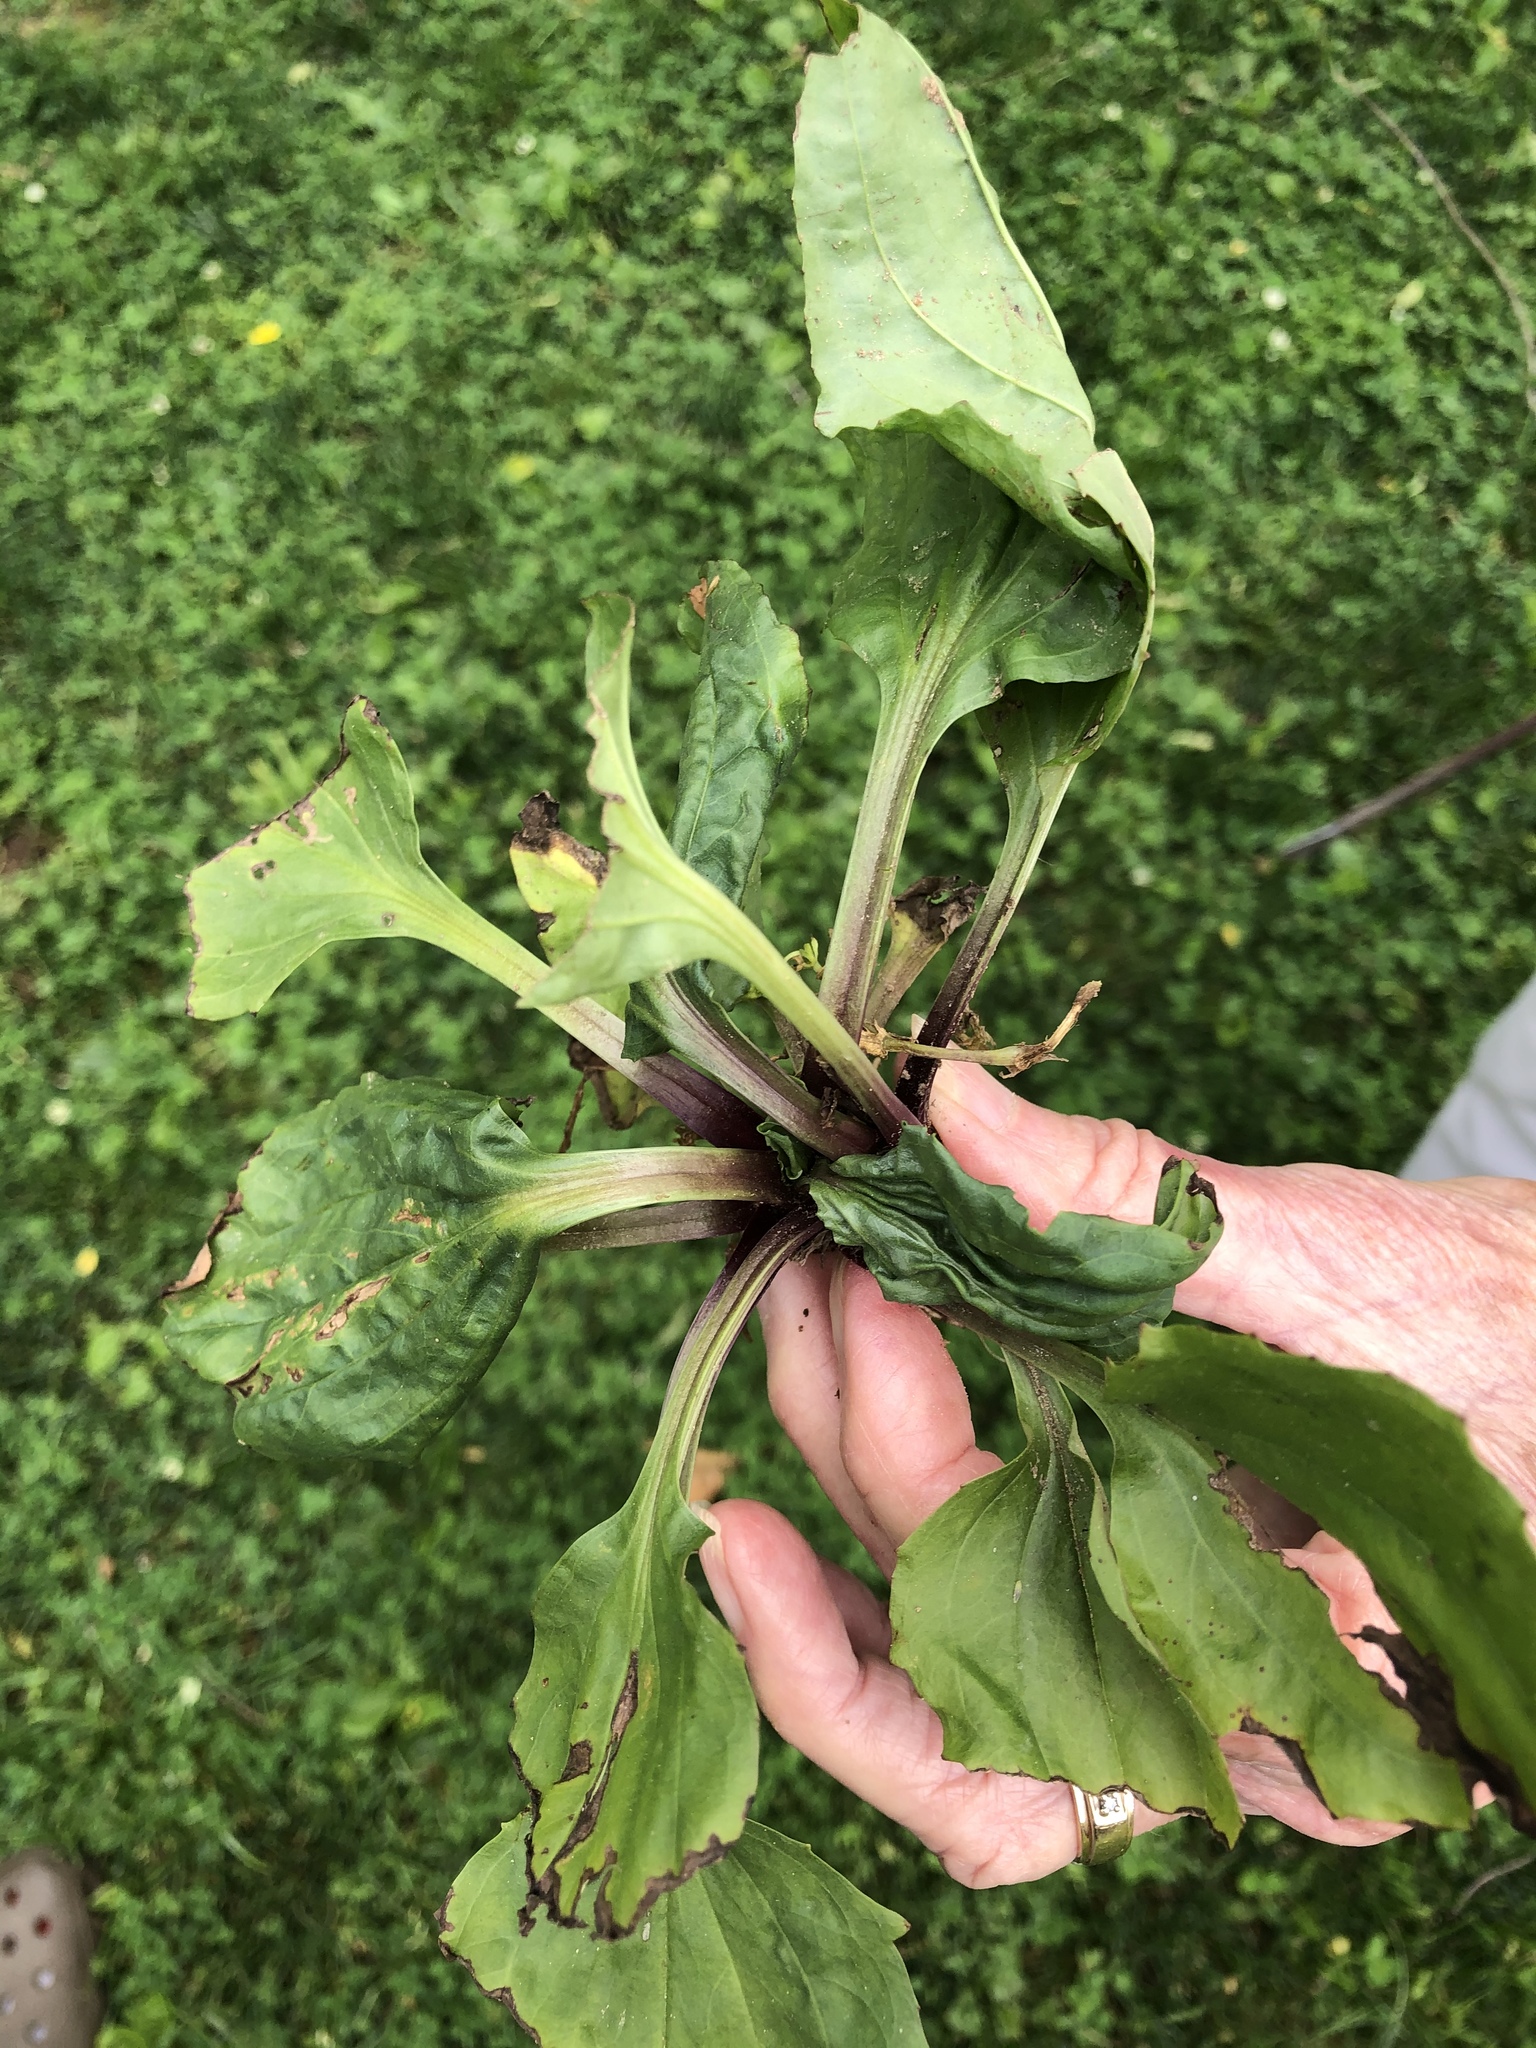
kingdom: Plantae
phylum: Tracheophyta
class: Magnoliopsida
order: Lamiales
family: Plantaginaceae
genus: Plantago
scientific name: Plantago rugelii
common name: American plantain
